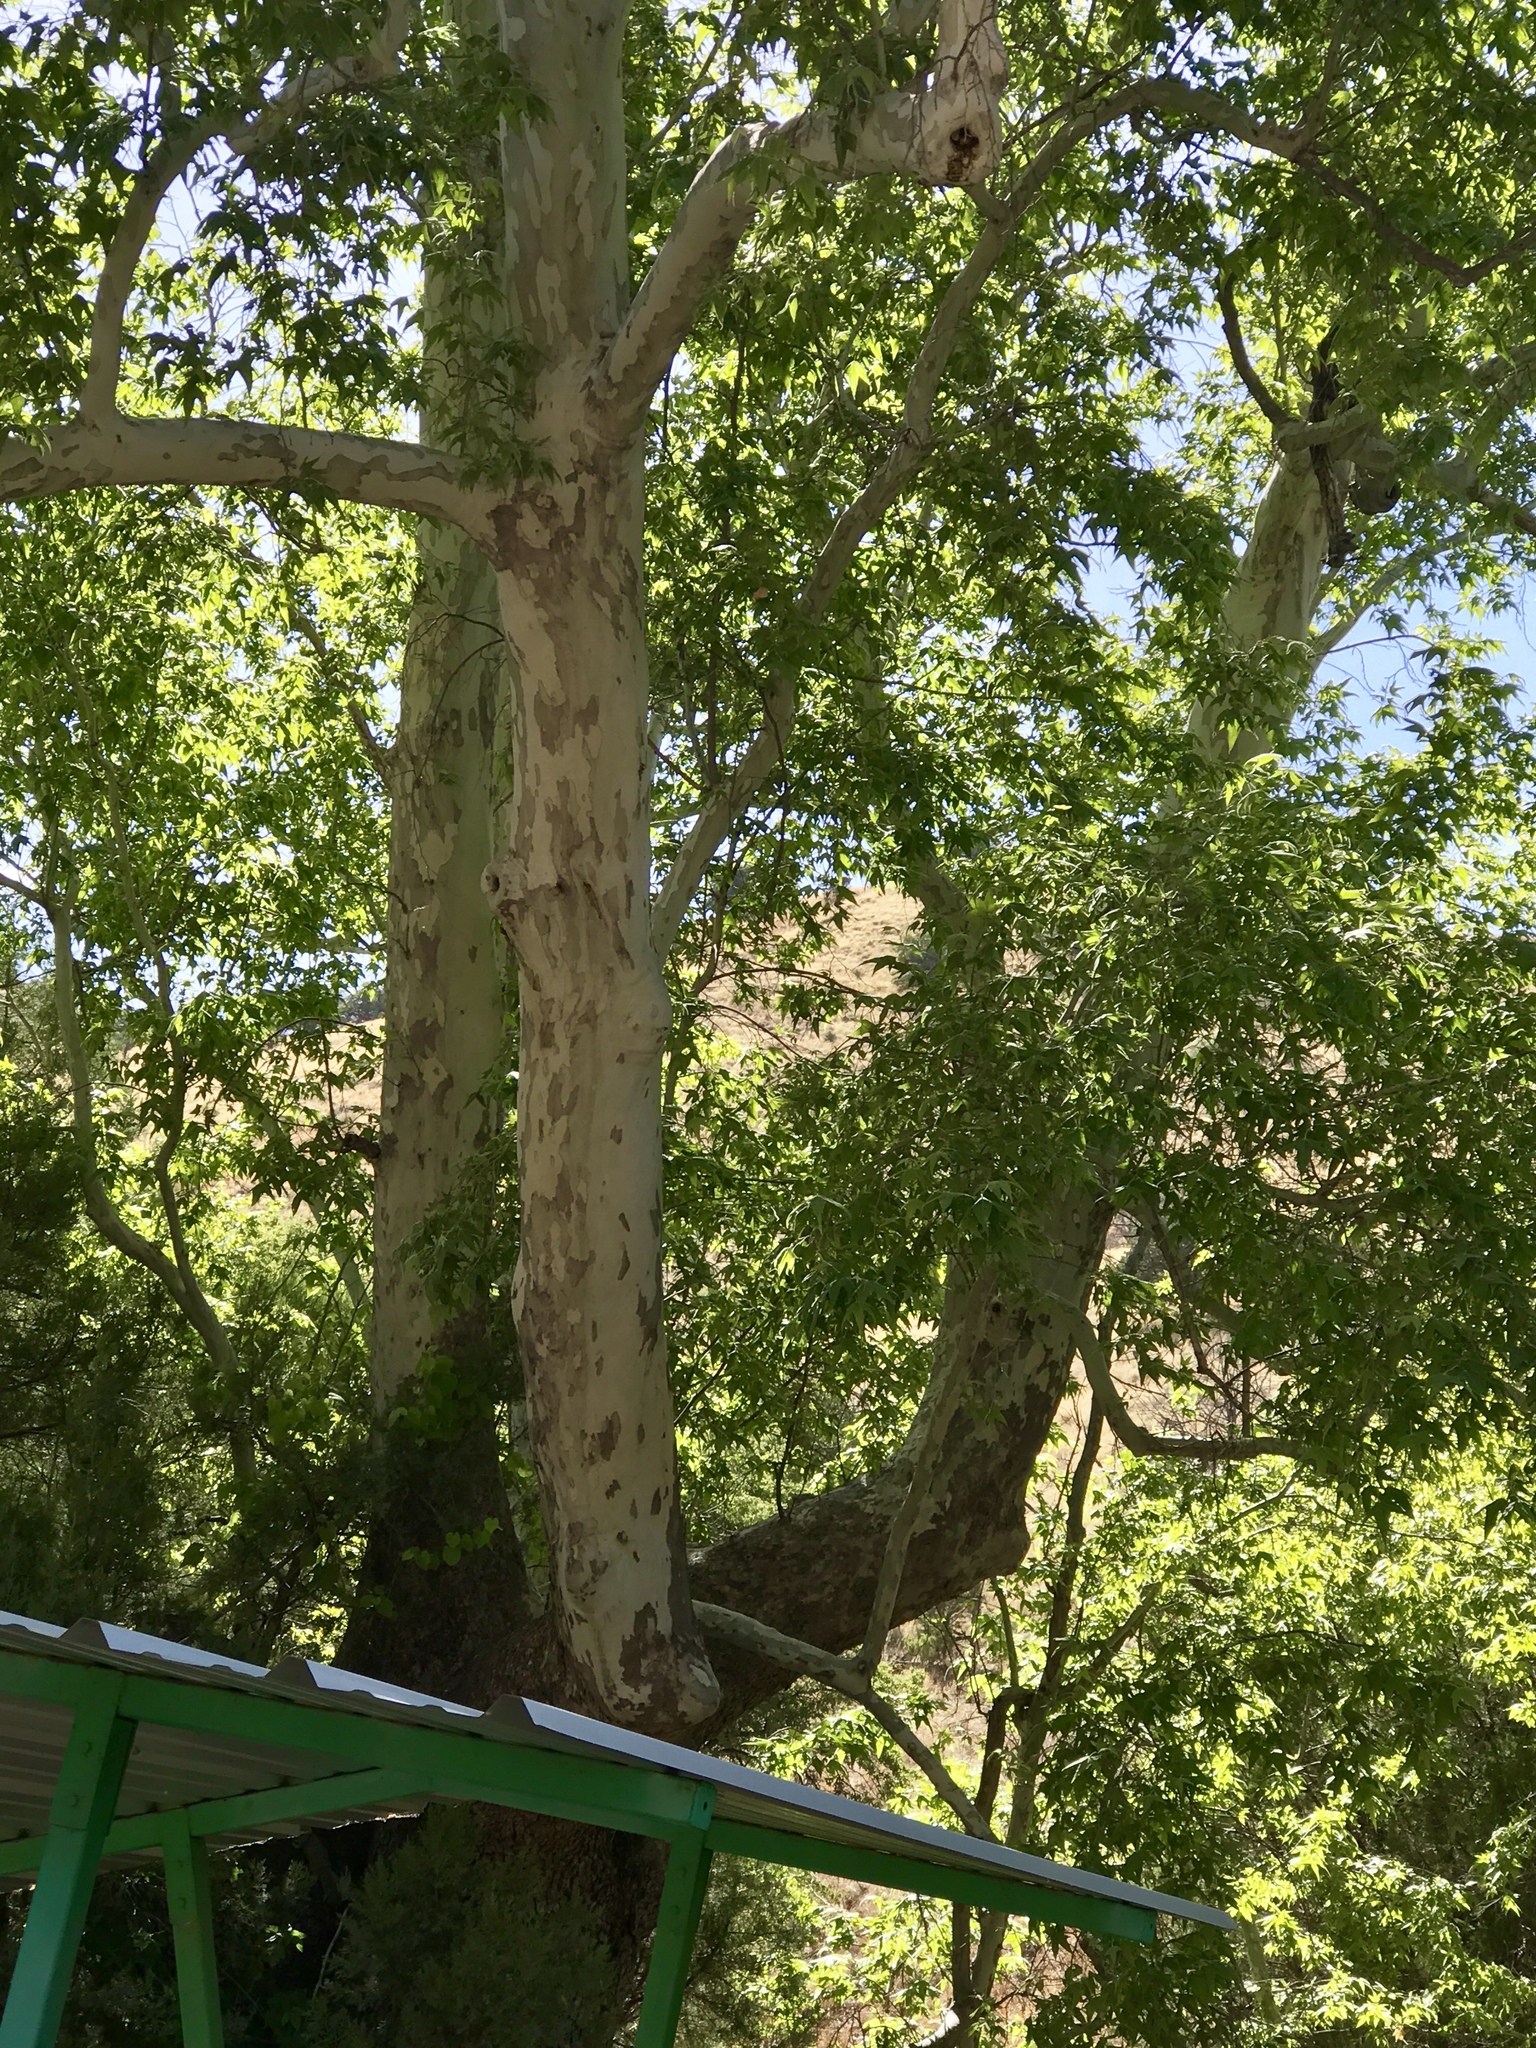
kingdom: Plantae
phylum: Tracheophyta
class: Magnoliopsida
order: Proteales
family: Platanaceae
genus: Platanus
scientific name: Platanus wrightii
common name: Arizona sycamore
